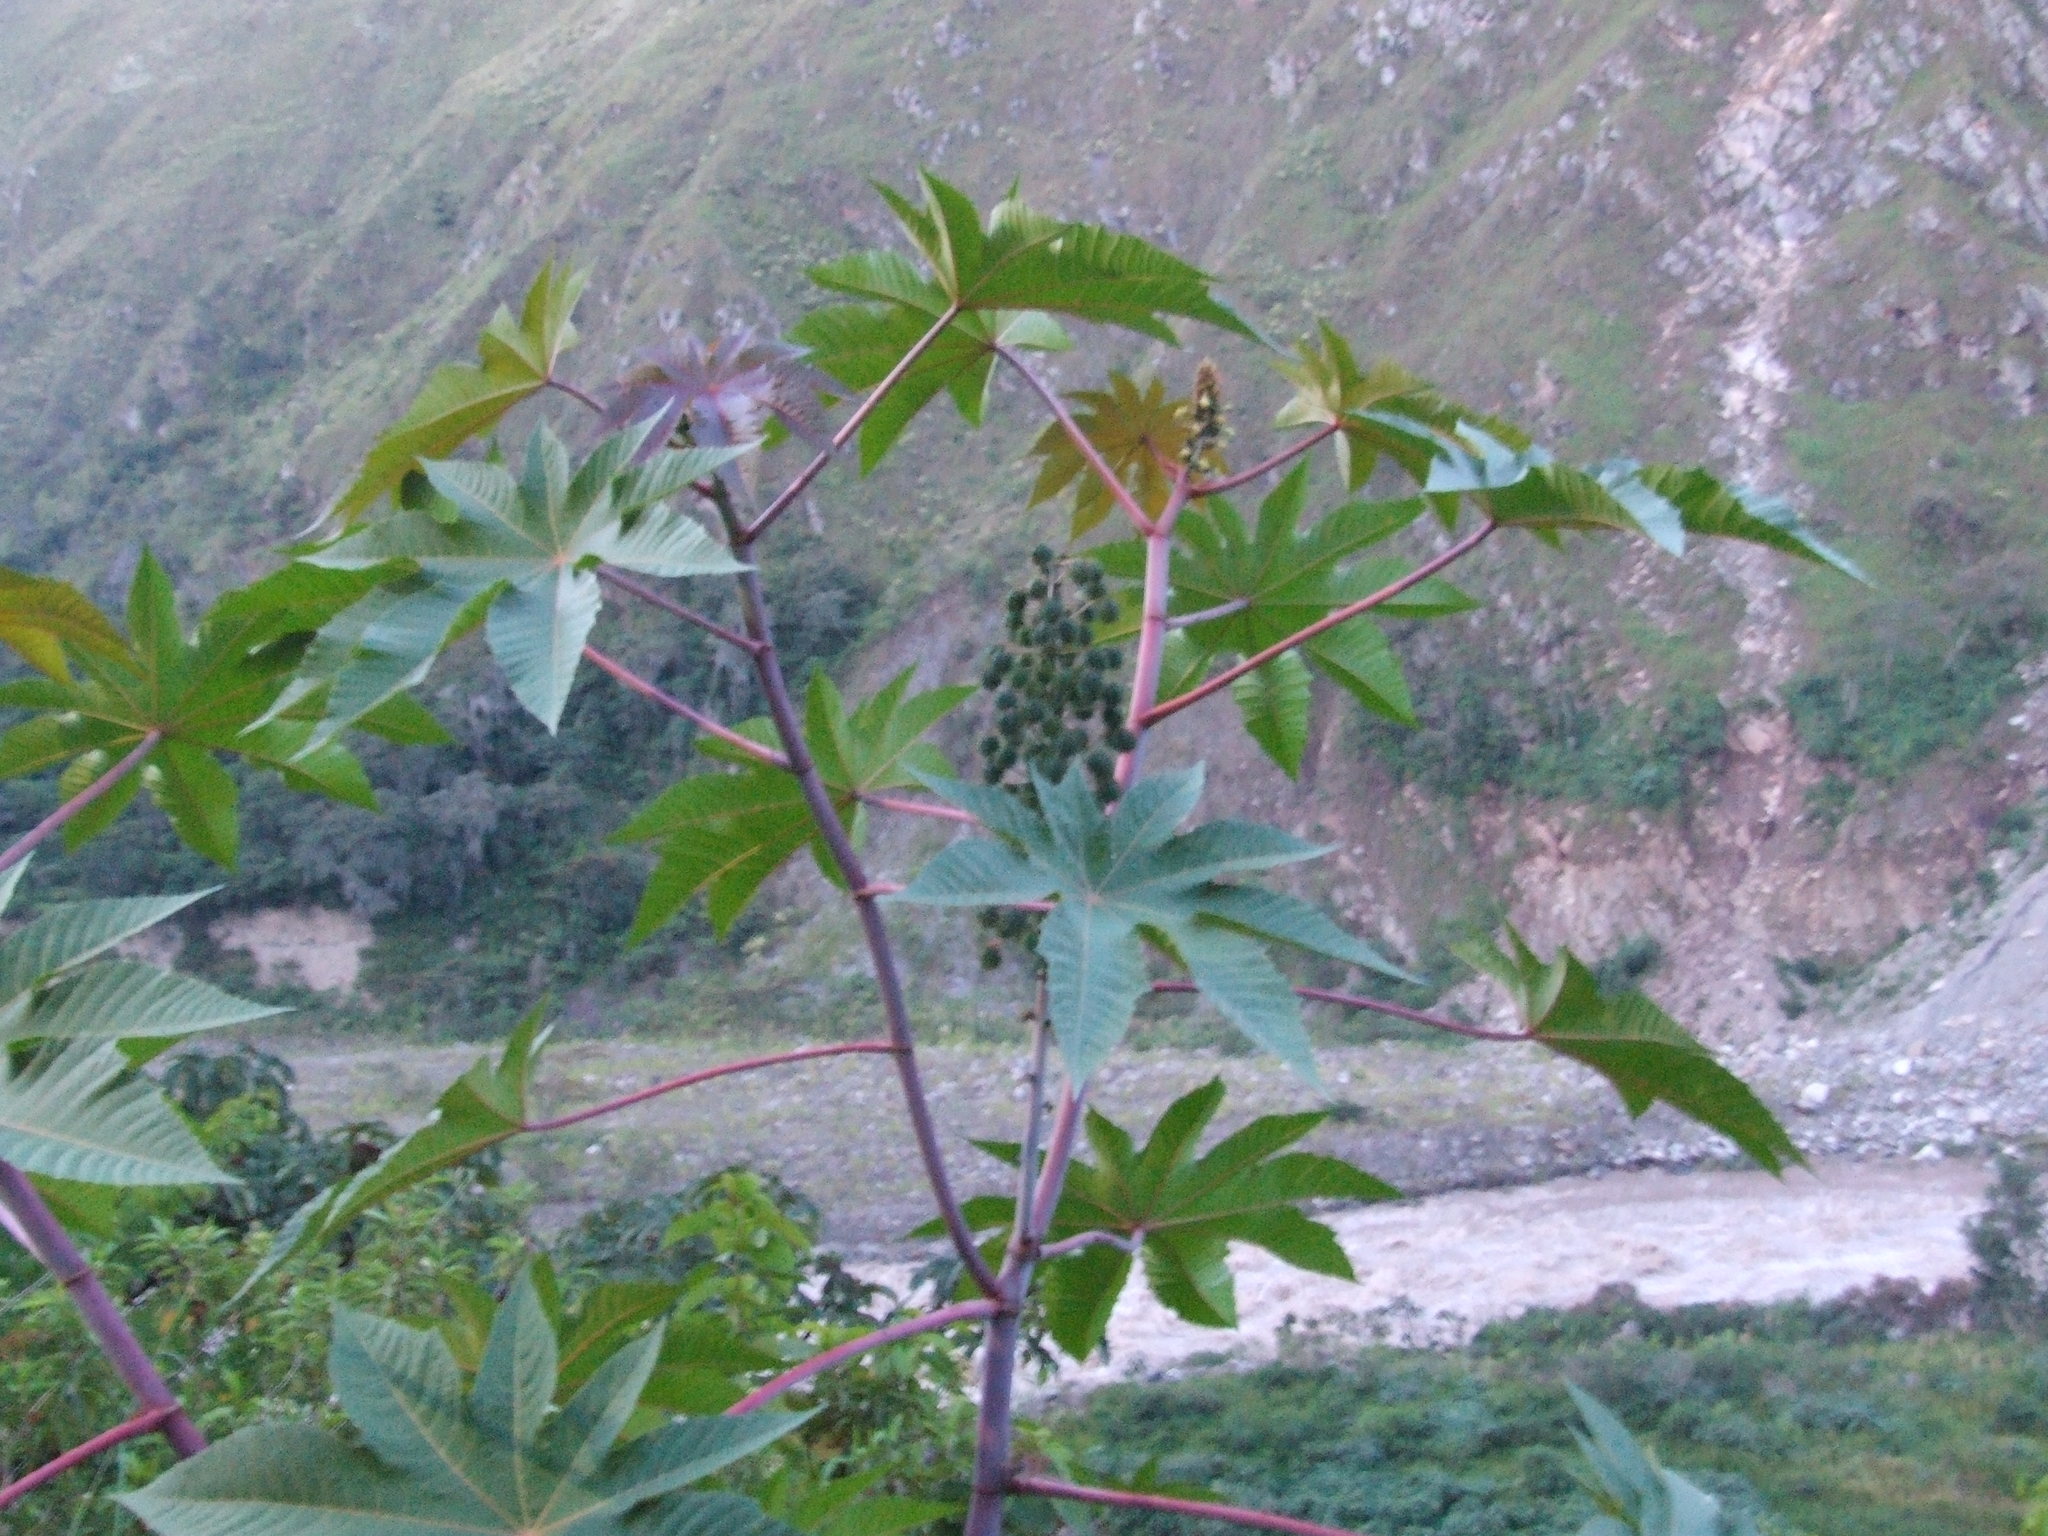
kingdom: Plantae
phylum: Tracheophyta
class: Magnoliopsida
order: Malpighiales
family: Euphorbiaceae
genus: Ricinus
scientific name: Ricinus communis
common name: Castor-oil-plant
